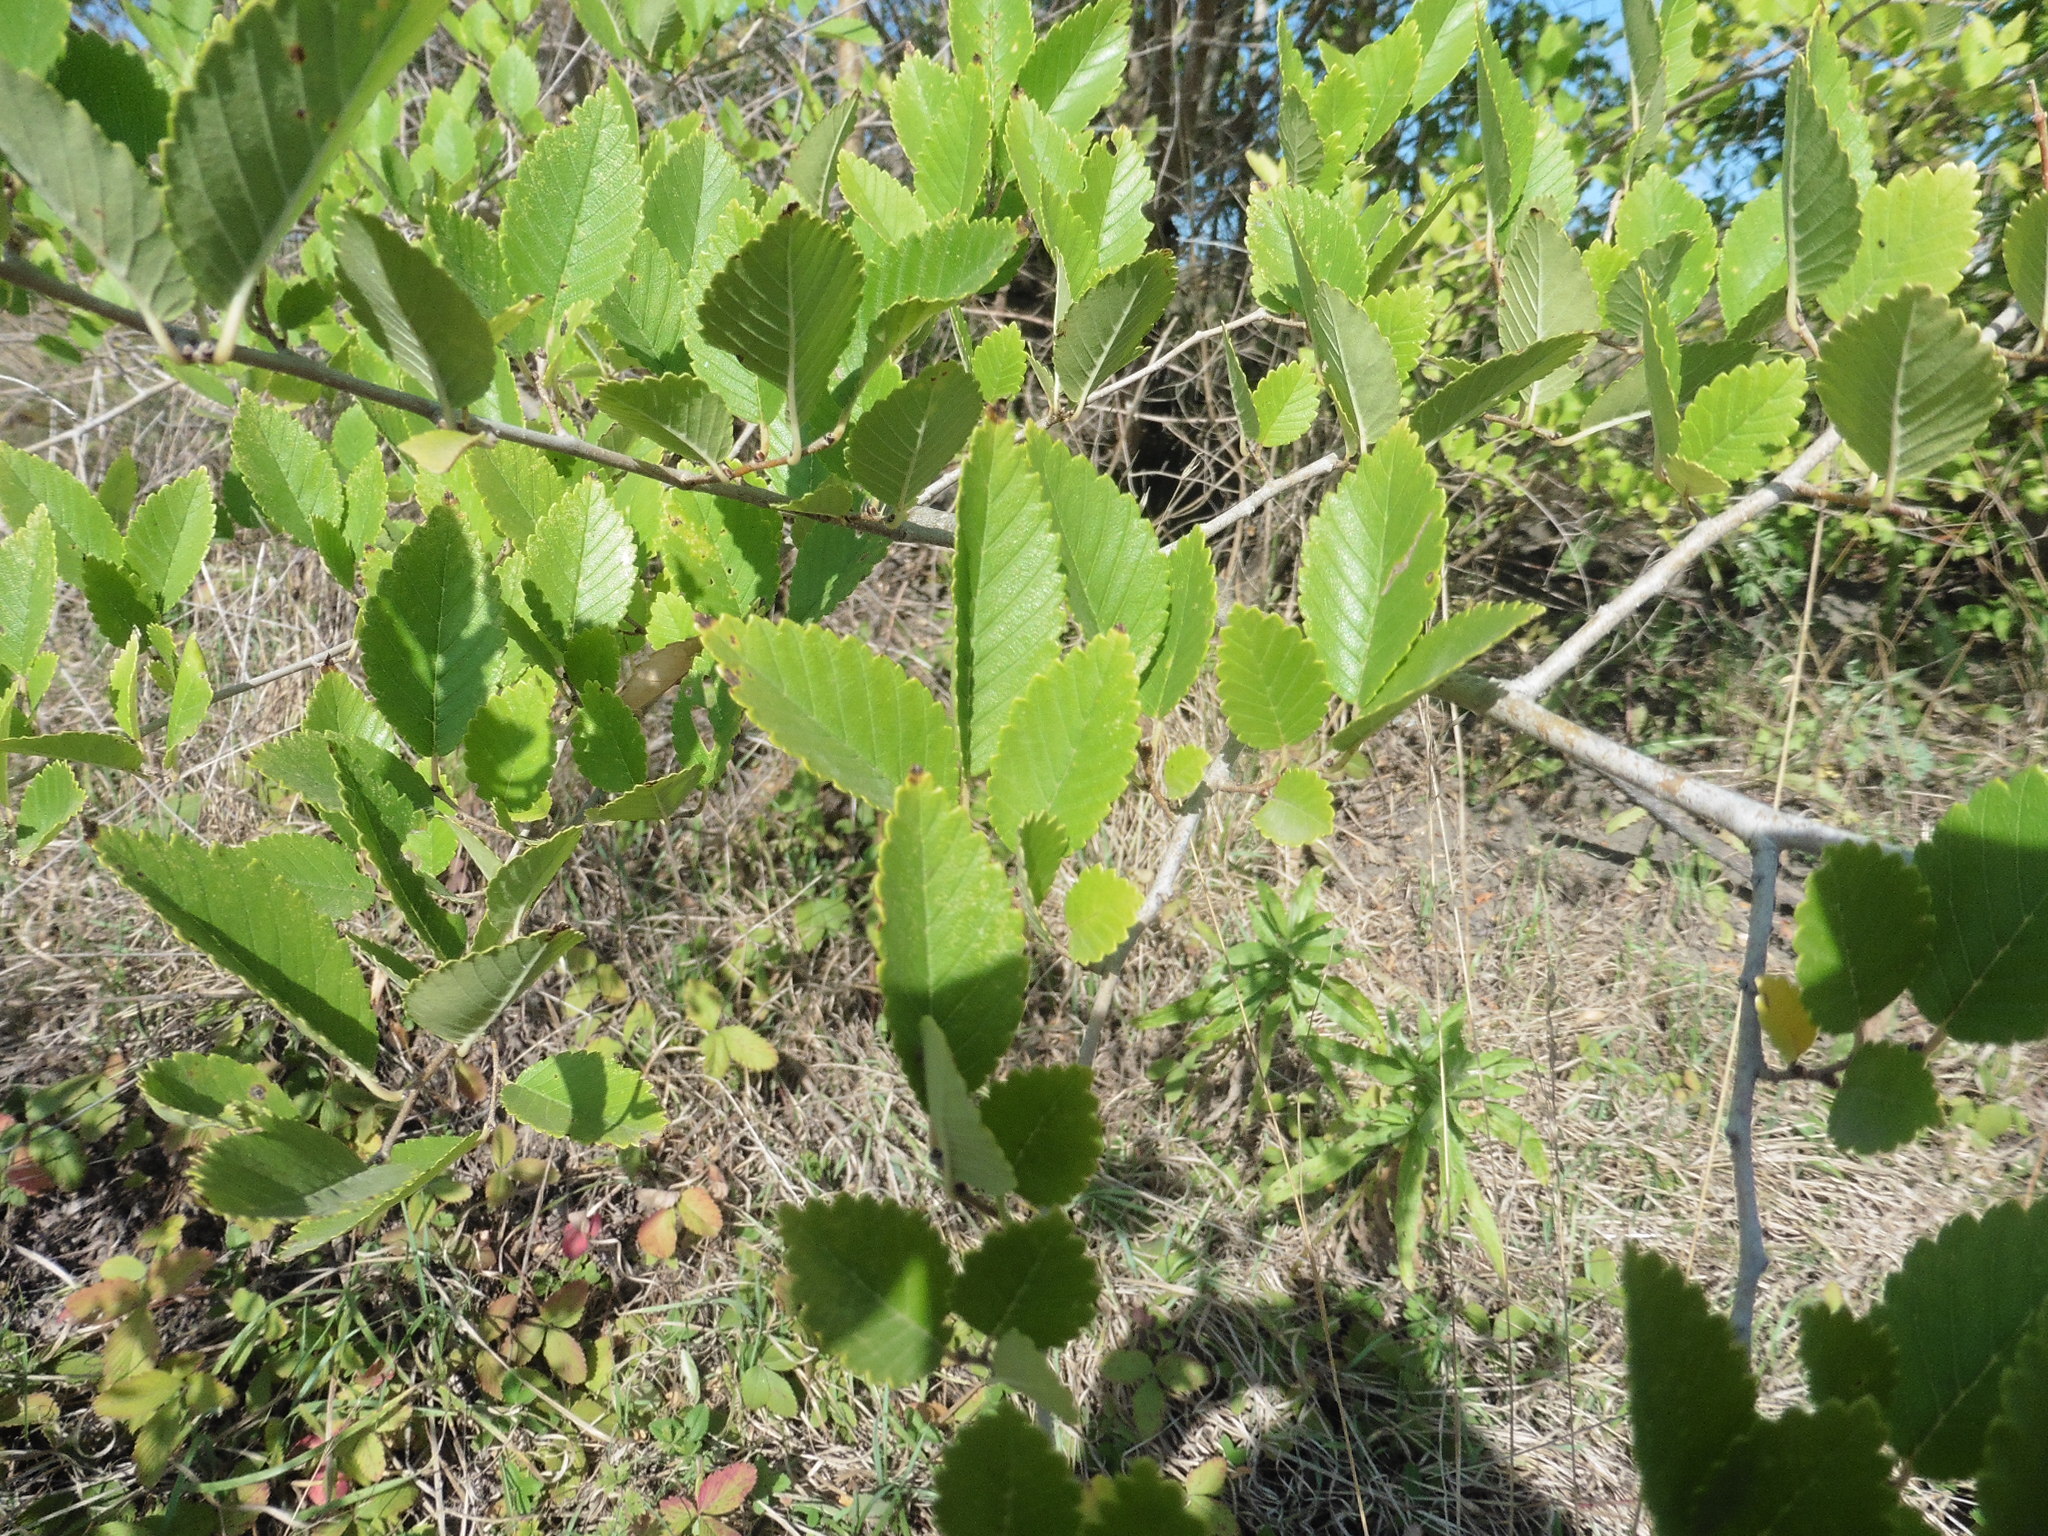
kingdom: Plantae
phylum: Tracheophyta
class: Magnoliopsida
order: Rosales
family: Ulmaceae
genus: Ulmus
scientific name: Ulmus pumila
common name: Siberian elm
